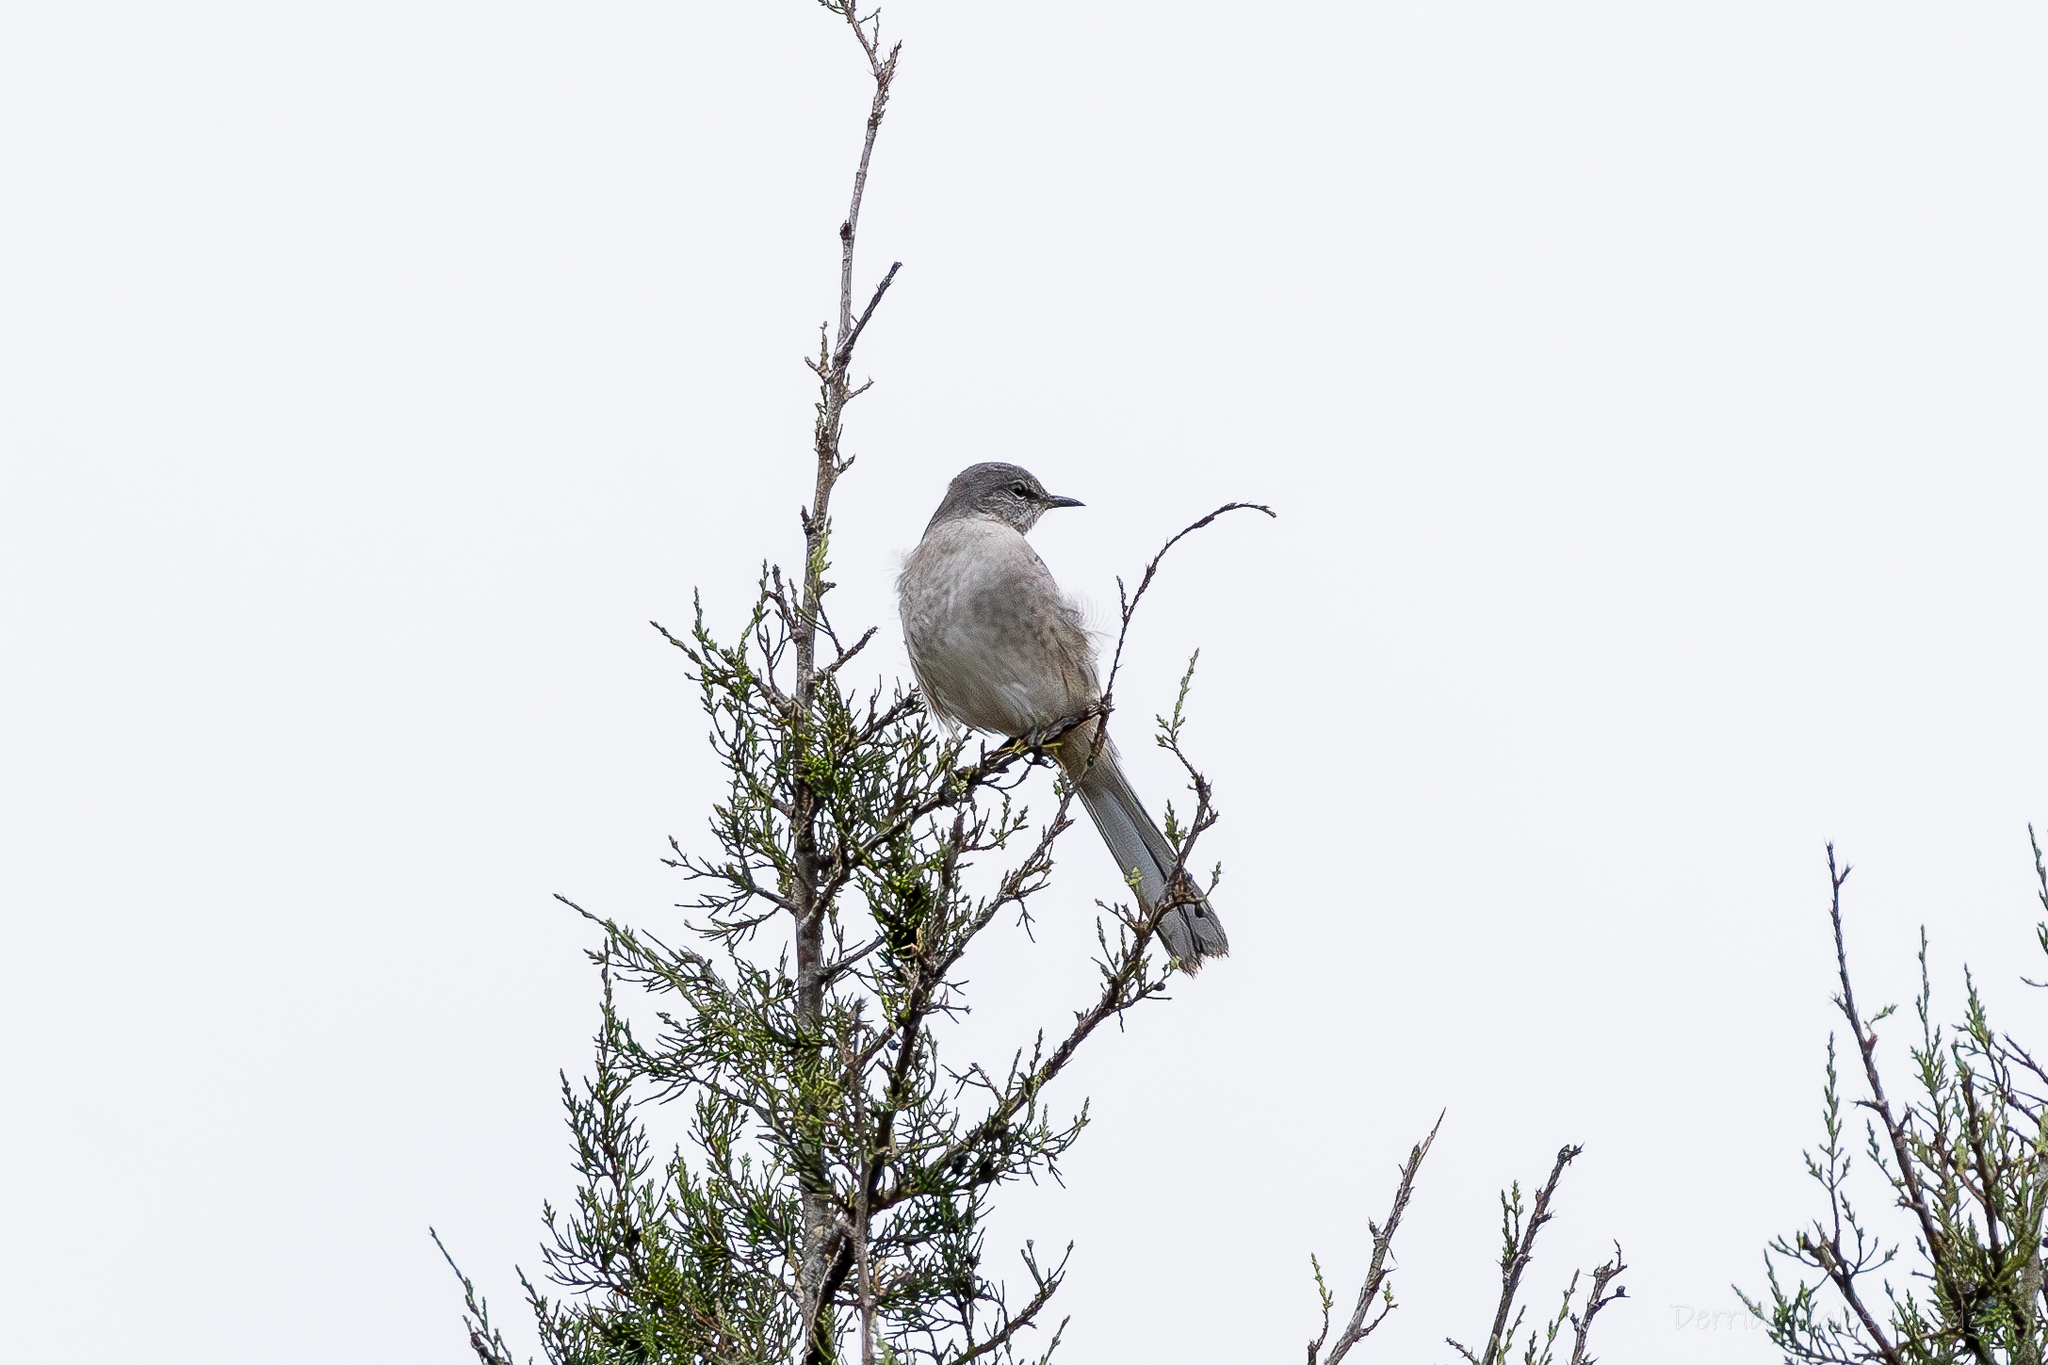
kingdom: Animalia
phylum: Chordata
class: Aves
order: Passeriformes
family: Mimidae
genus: Mimus
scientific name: Mimus polyglottos
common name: Northern mockingbird
